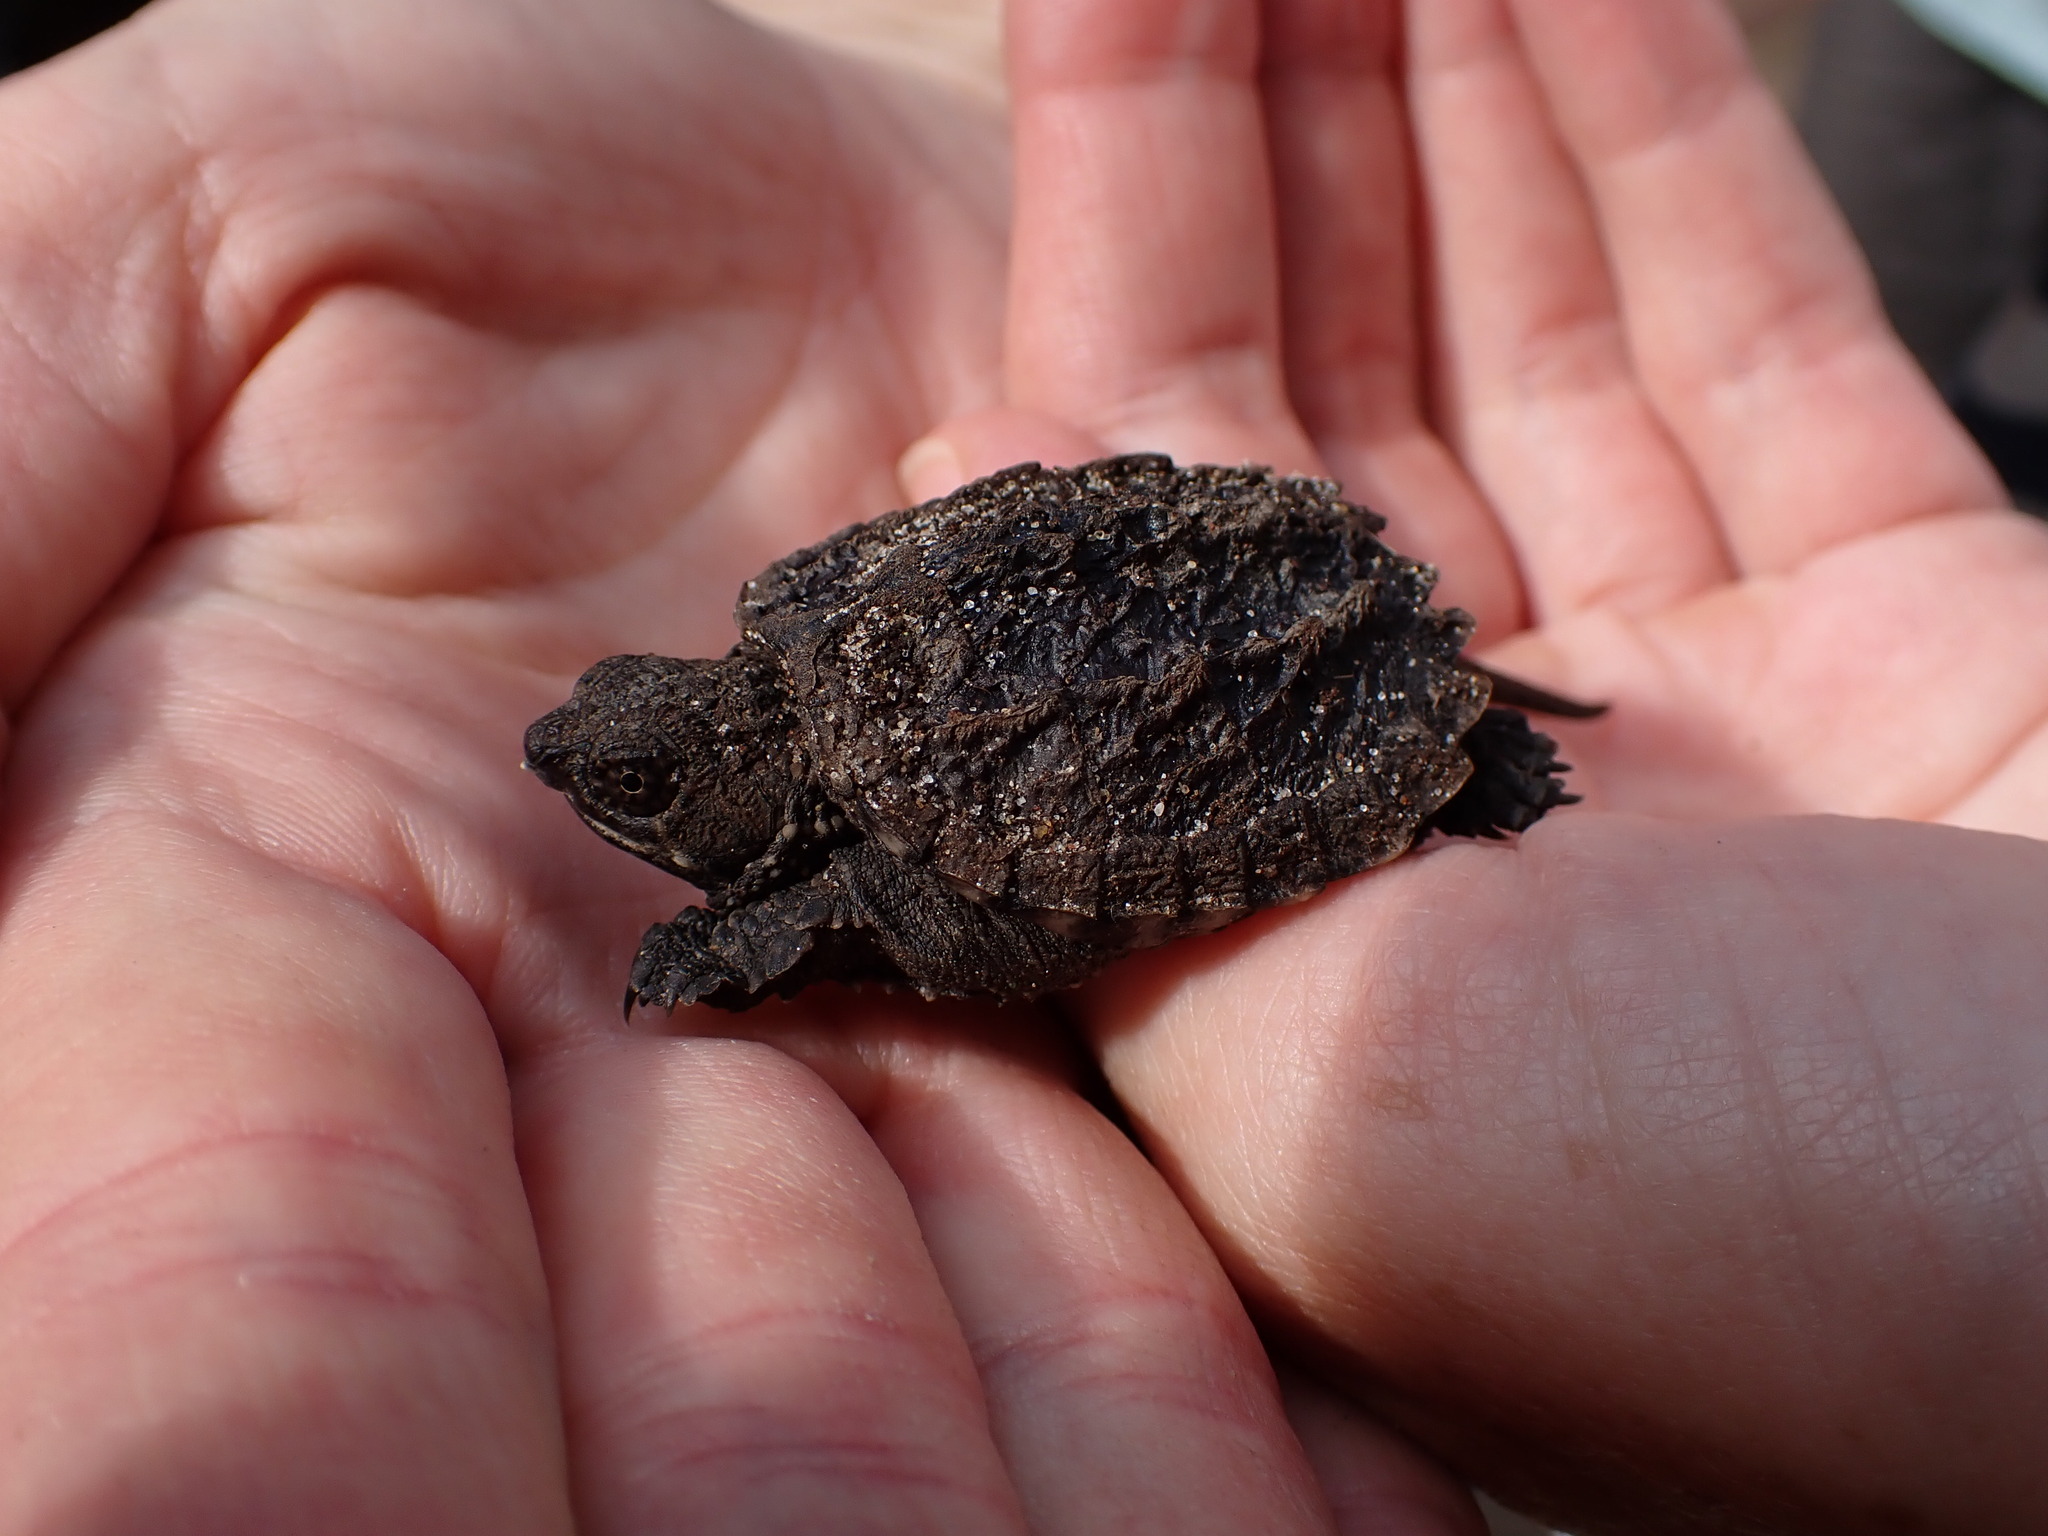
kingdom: Animalia
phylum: Chordata
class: Testudines
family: Chelydridae
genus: Chelydra
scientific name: Chelydra serpentina
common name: Common snapping turtle
